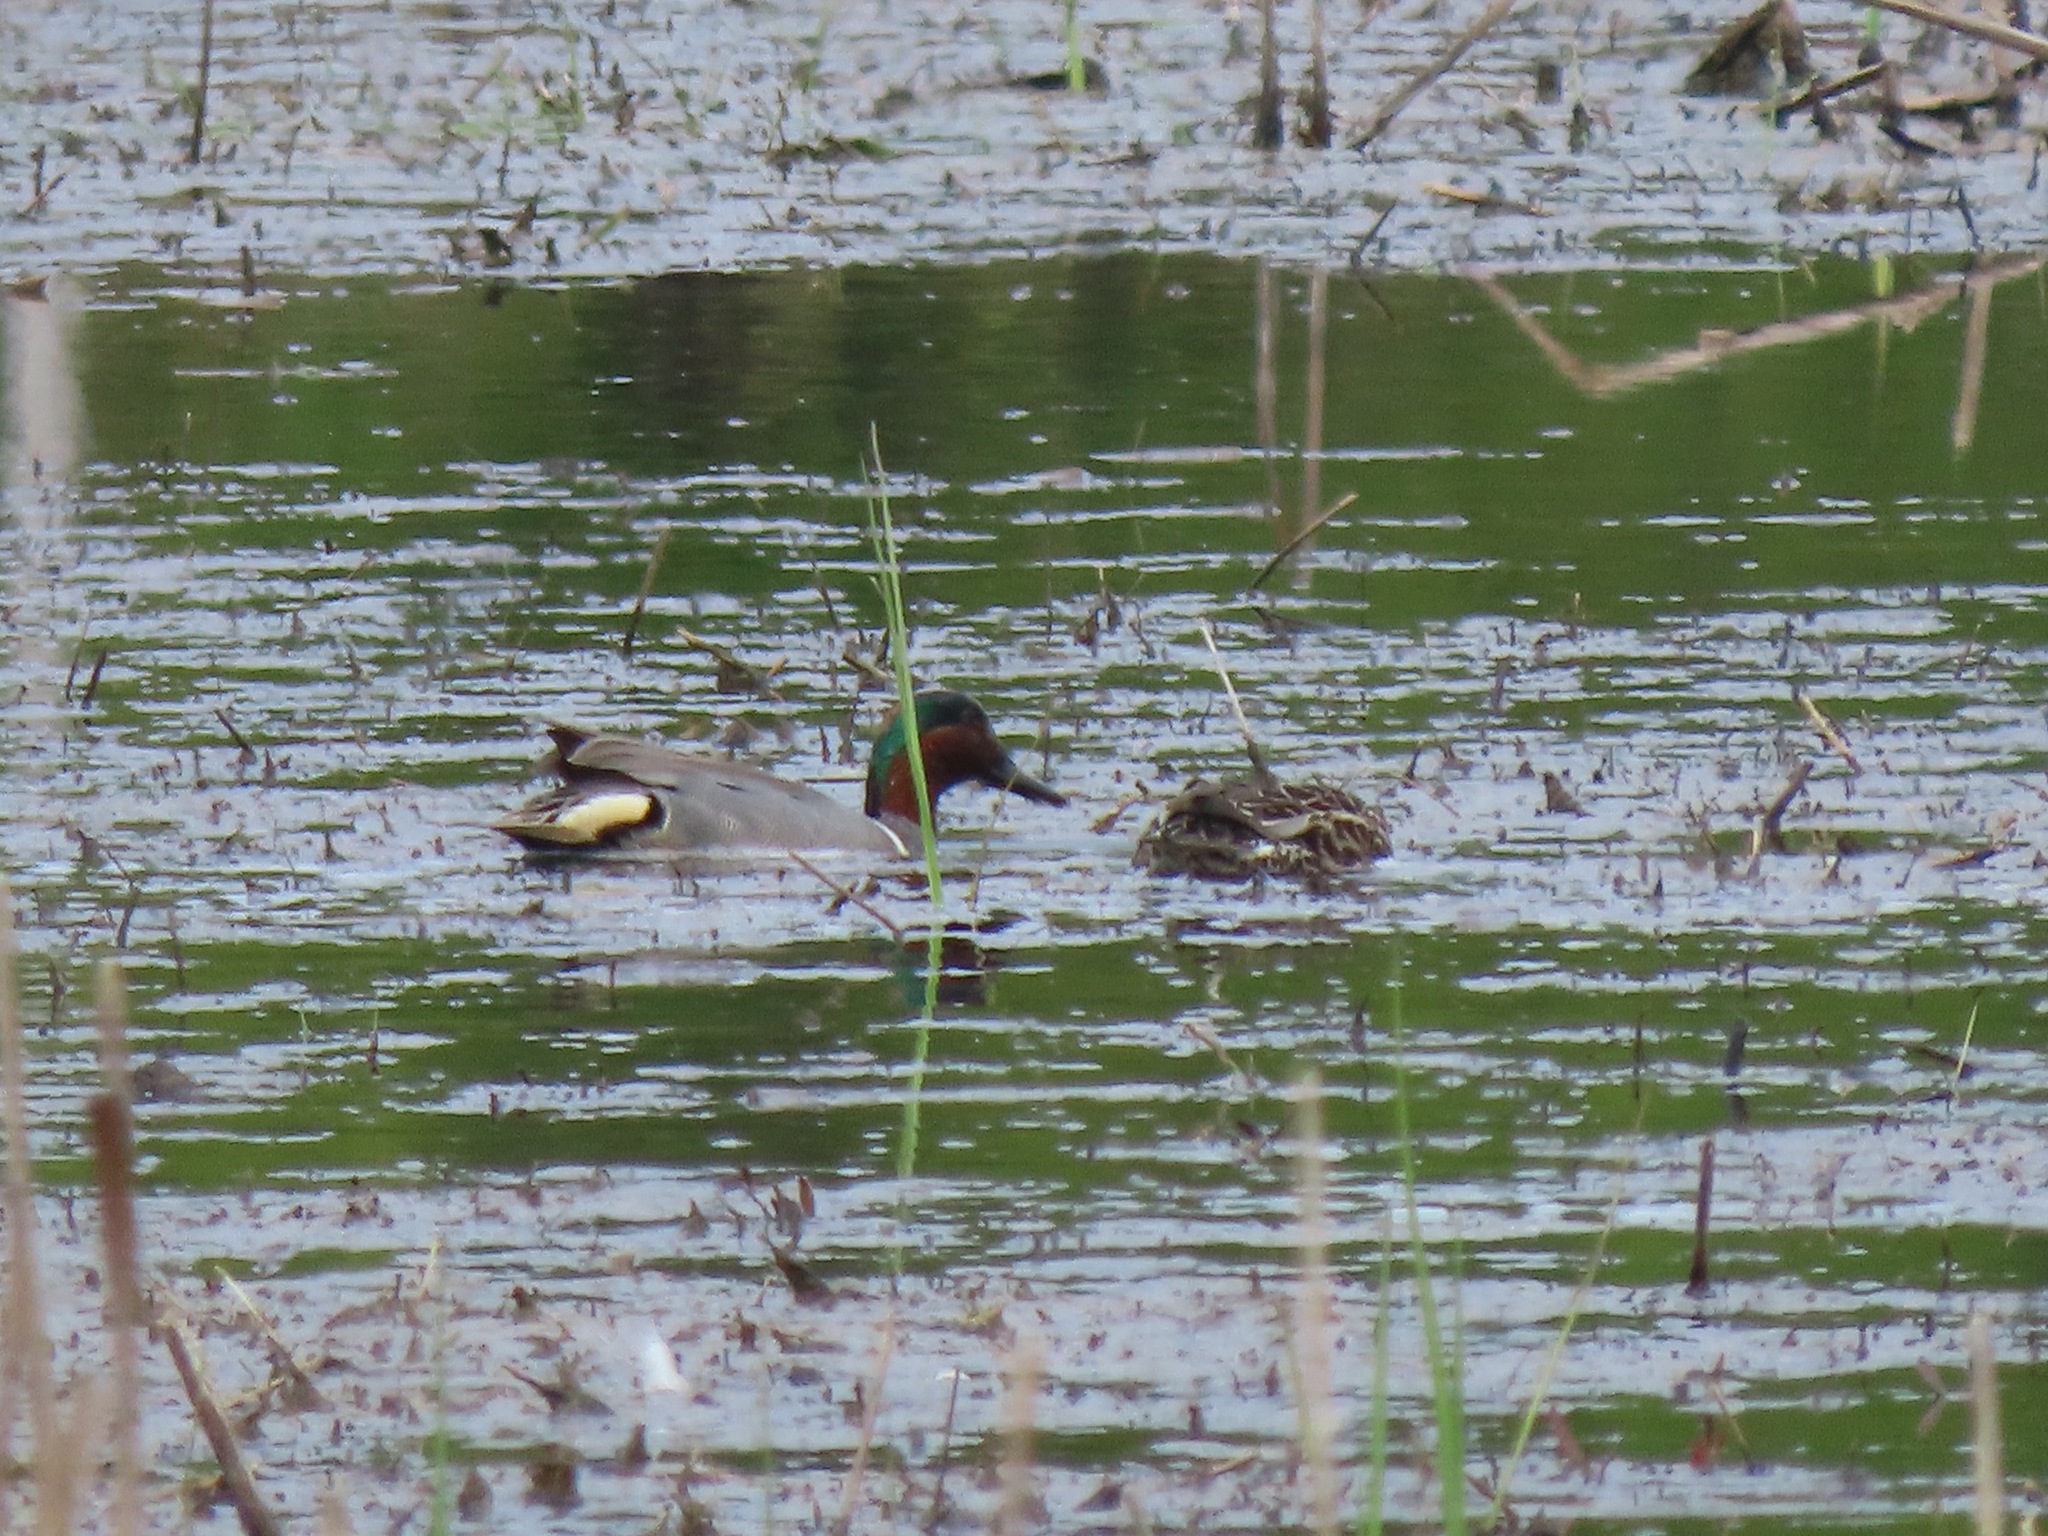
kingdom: Animalia
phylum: Chordata
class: Aves
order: Anseriformes
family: Anatidae
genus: Anas
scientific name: Anas crecca
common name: Eurasian teal
